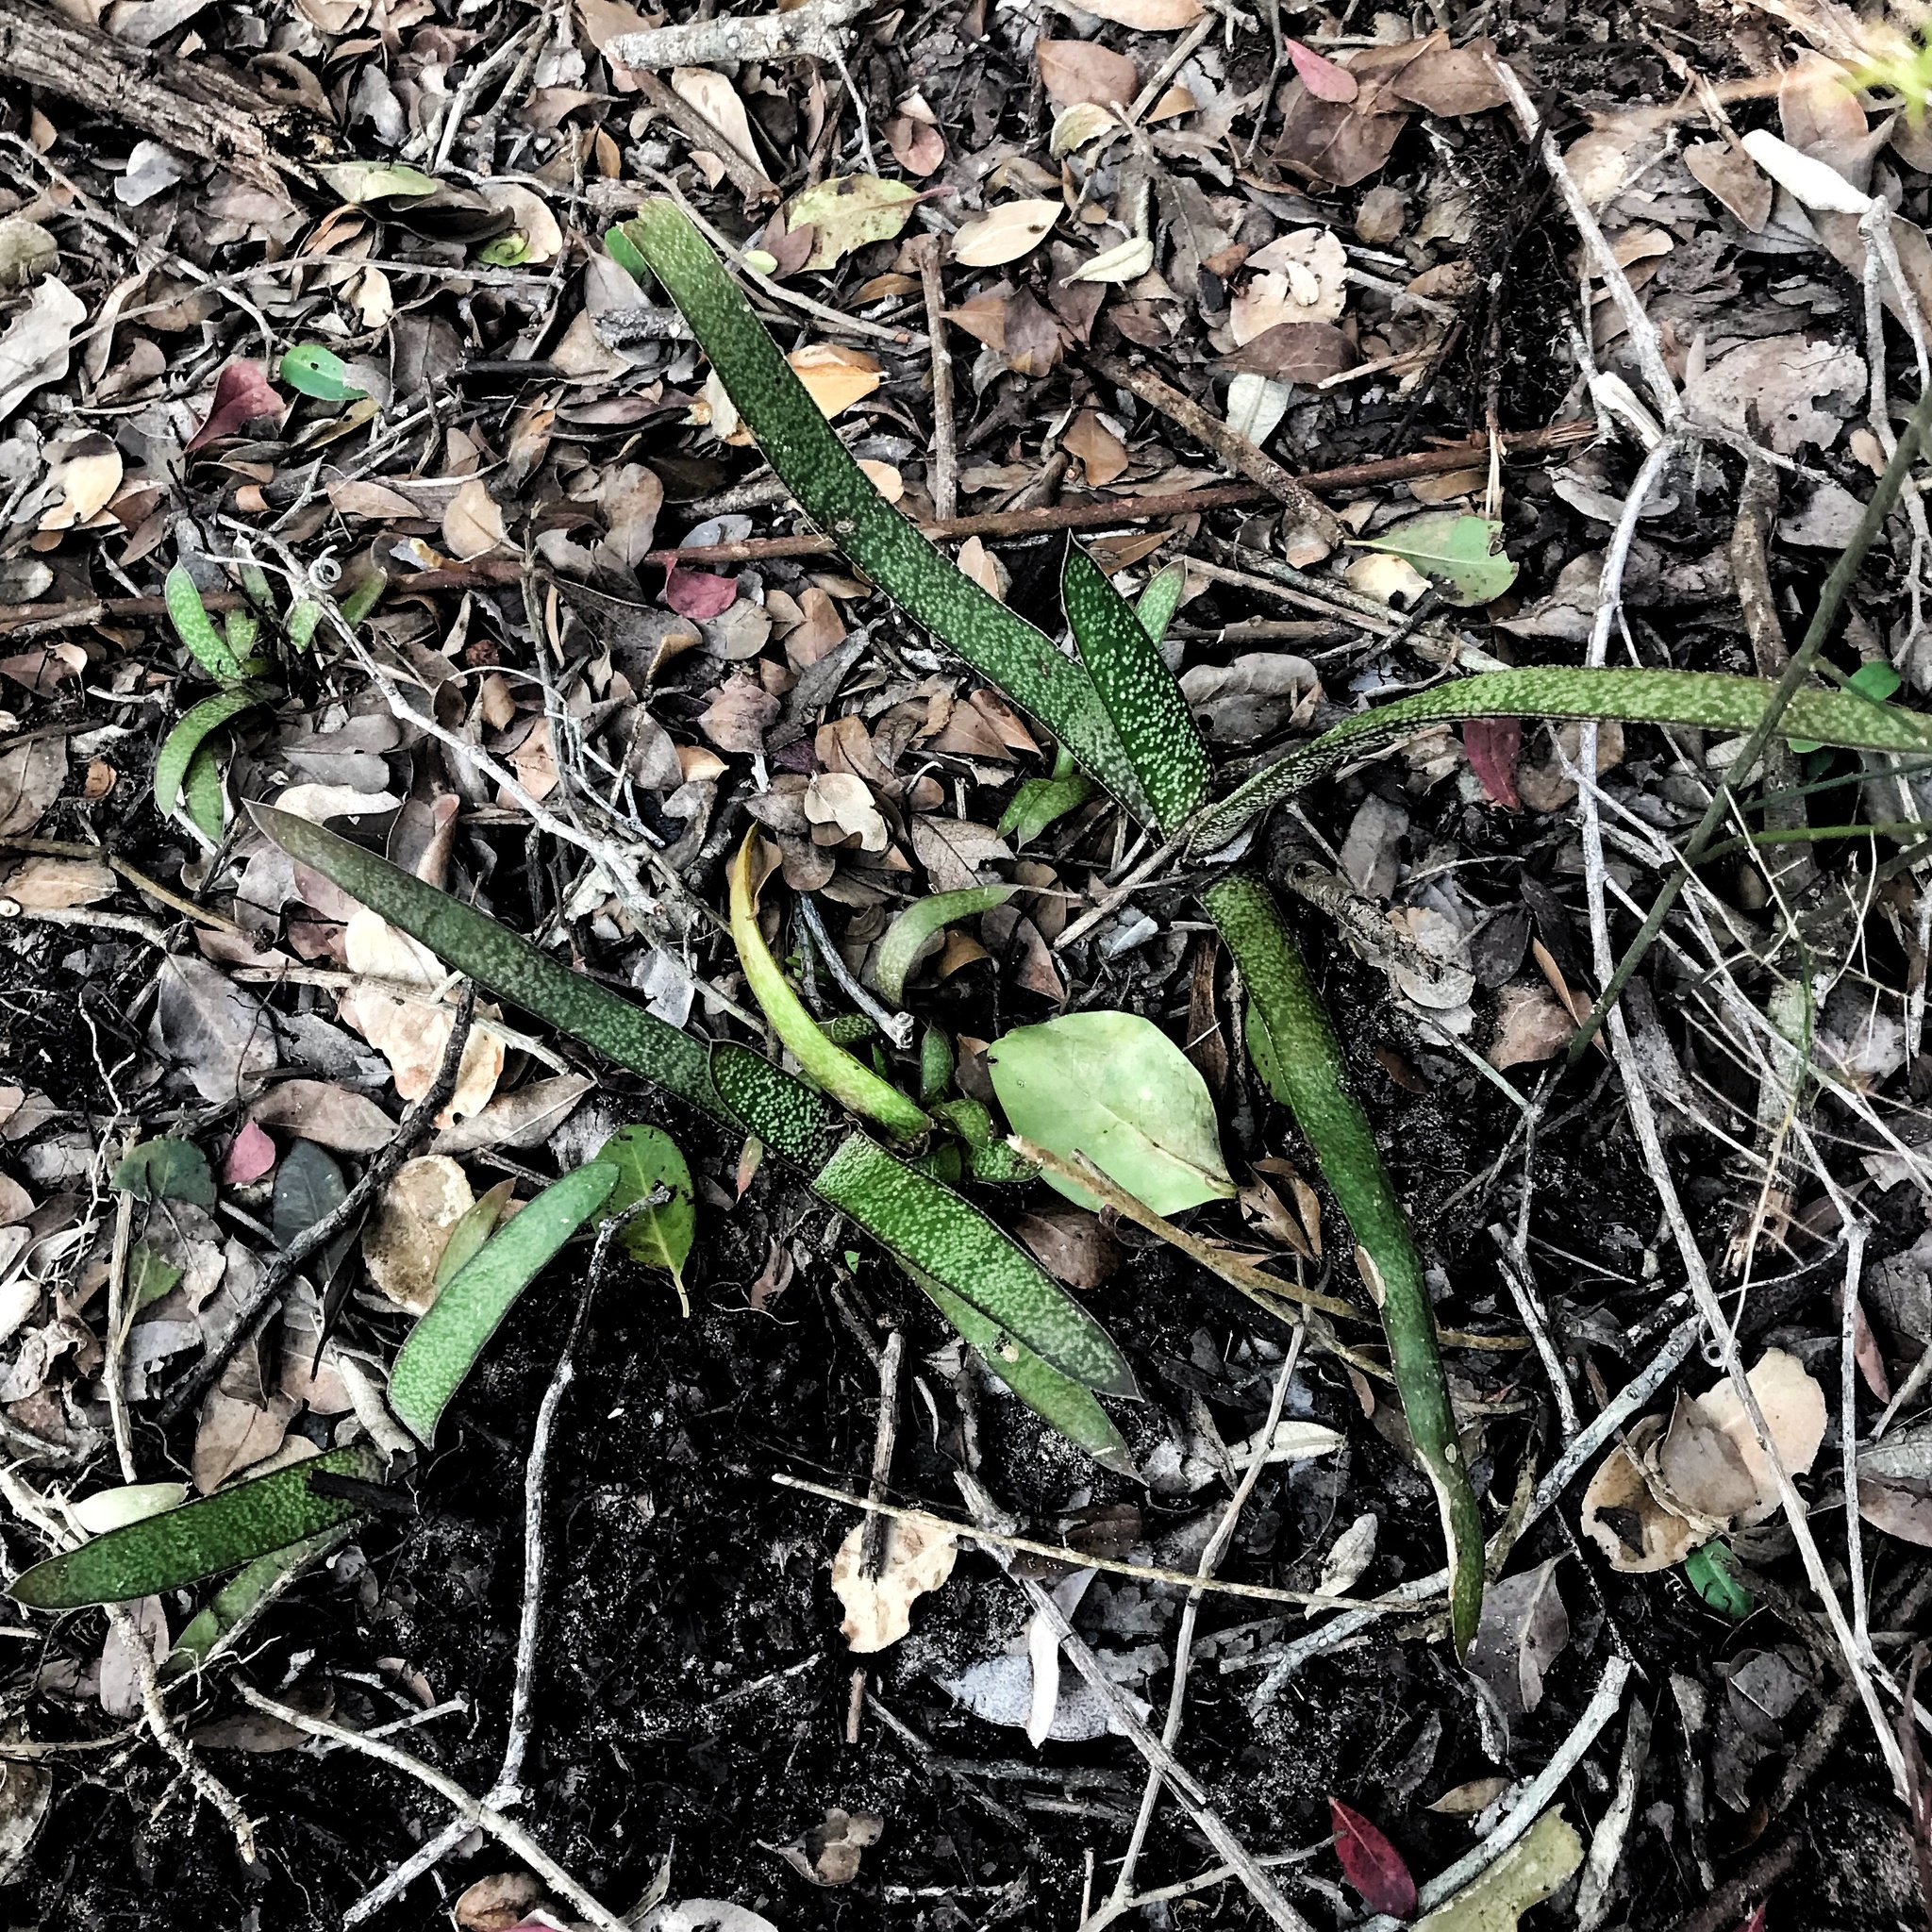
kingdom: Plantae
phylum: Tracheophyta
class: Liliopsida
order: Asparagales
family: Asphodelaceae
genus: Gasteria
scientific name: Gasteria acinacifolia
